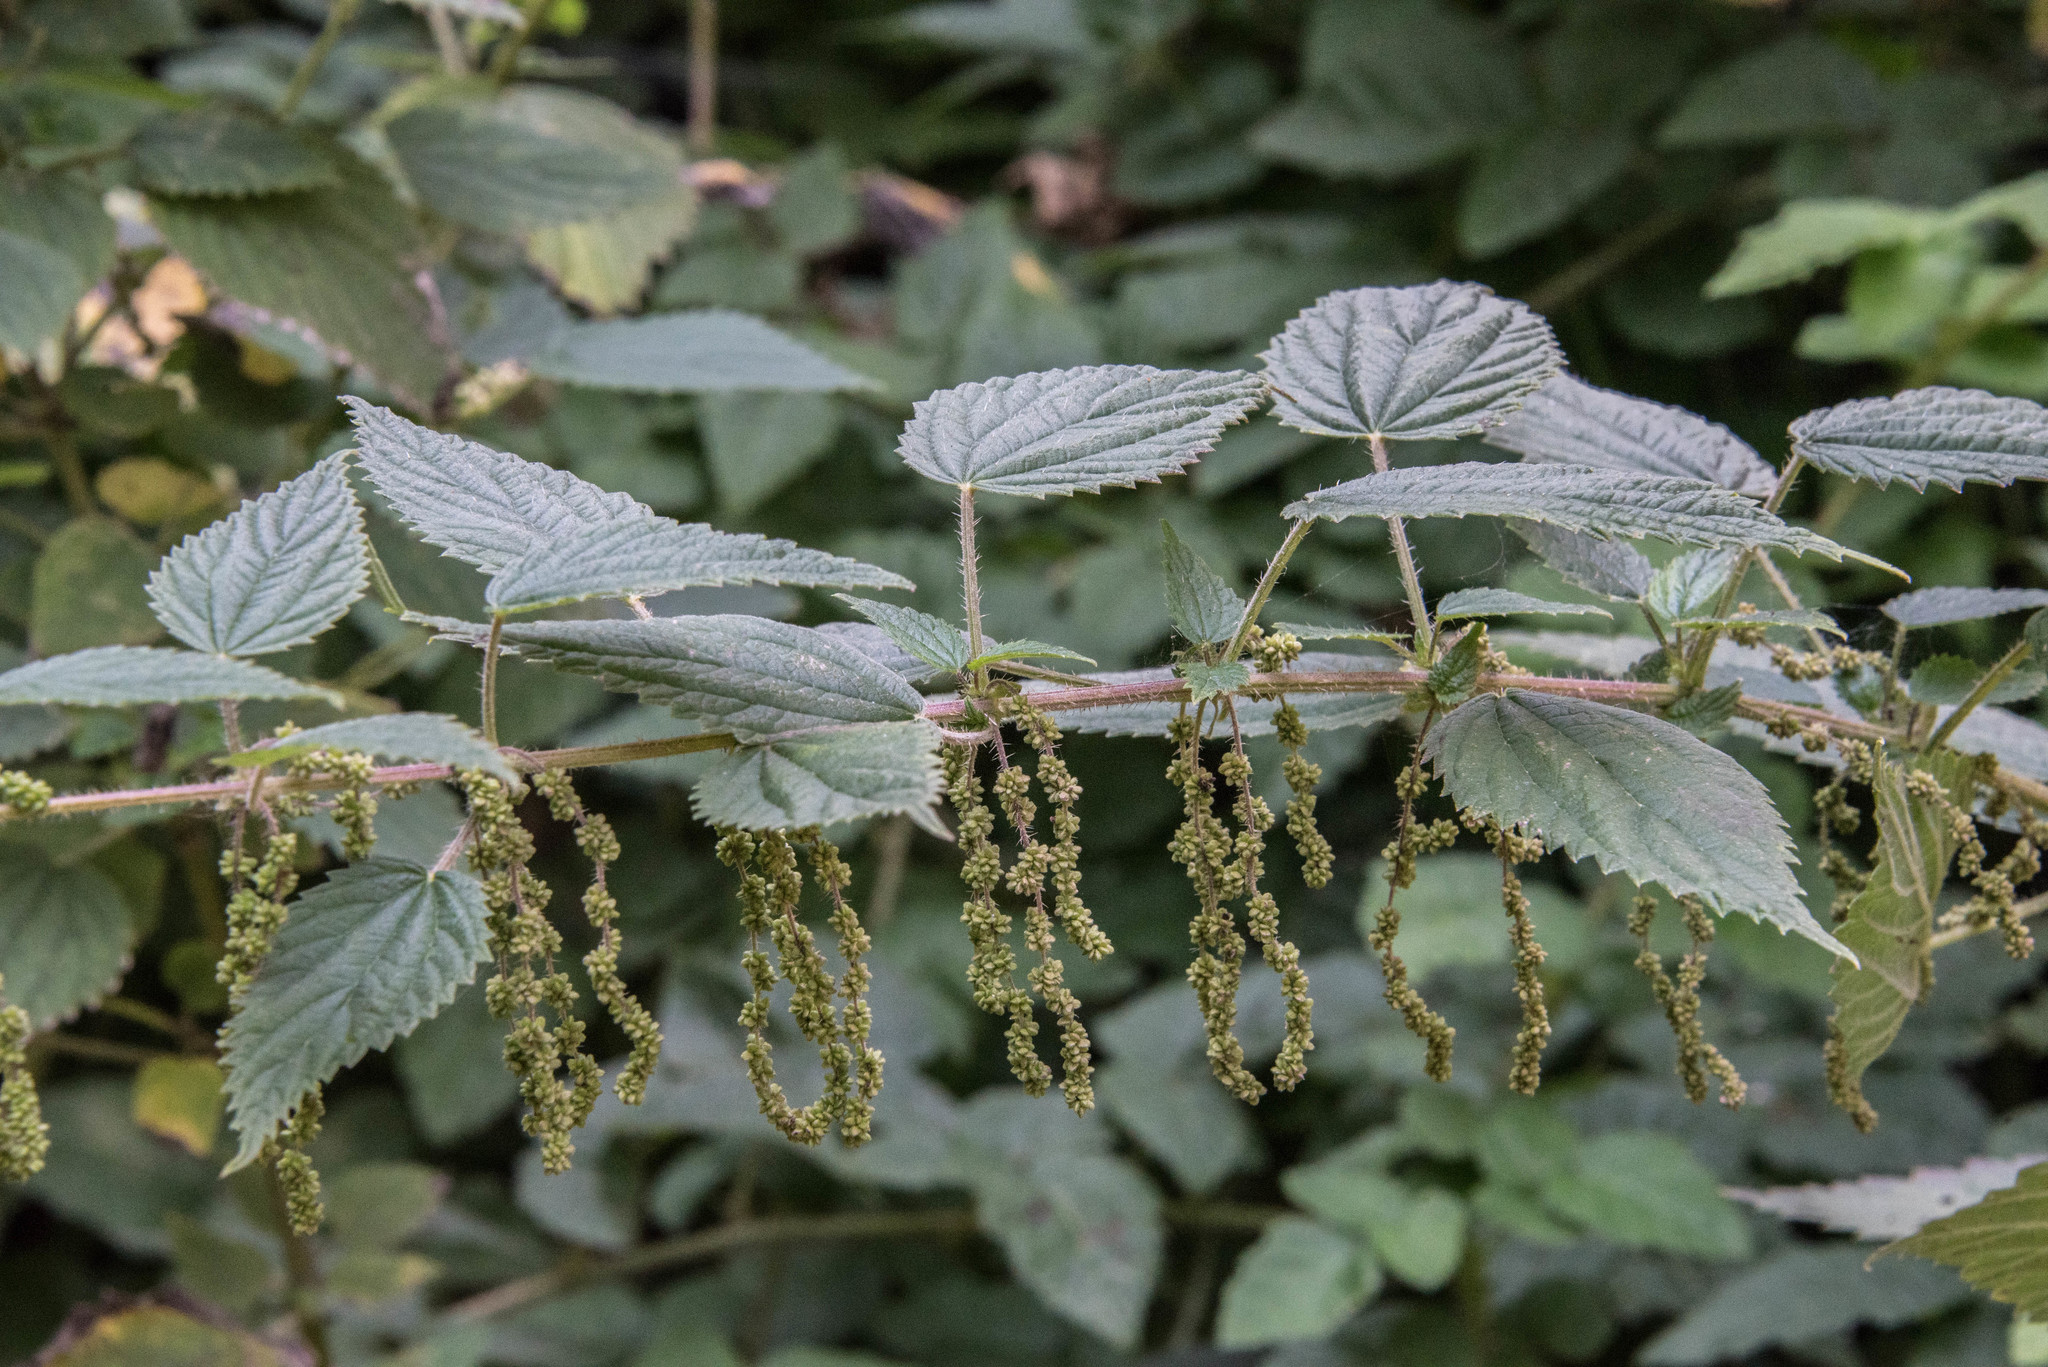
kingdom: Plantae
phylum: Tracheophyta
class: Magnoliopsida
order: Rosales
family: Urticaceae
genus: Urtica
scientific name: Urtica gracilis
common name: Slender stinging nettle
